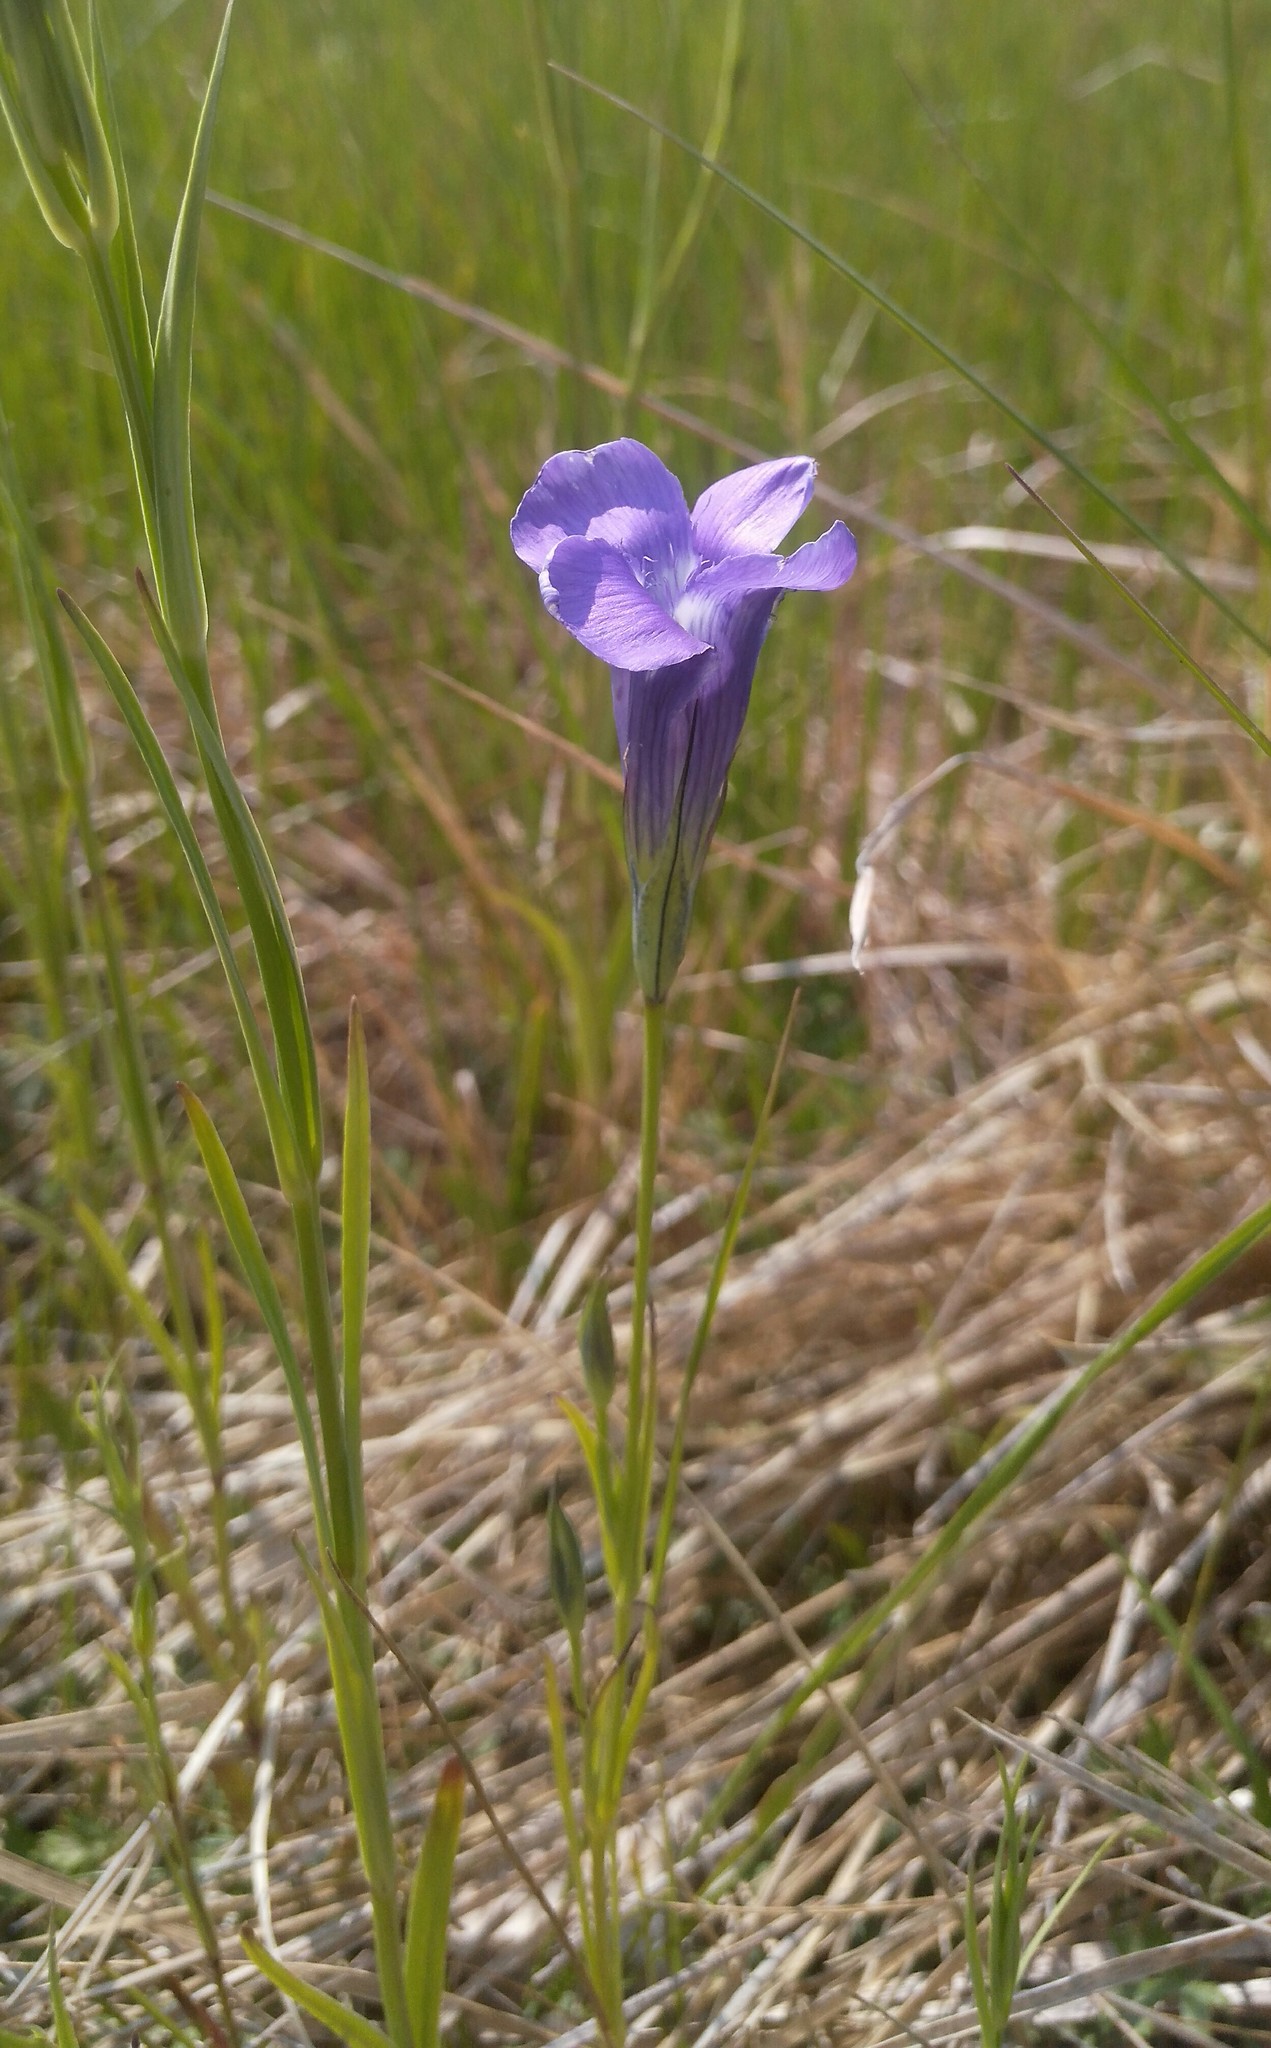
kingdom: Plantae
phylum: Tracheophyta
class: Magnoliopsida
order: Gentianales
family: Gentianaceae
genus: Gentianopsis
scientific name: Gentianopsis barbata
